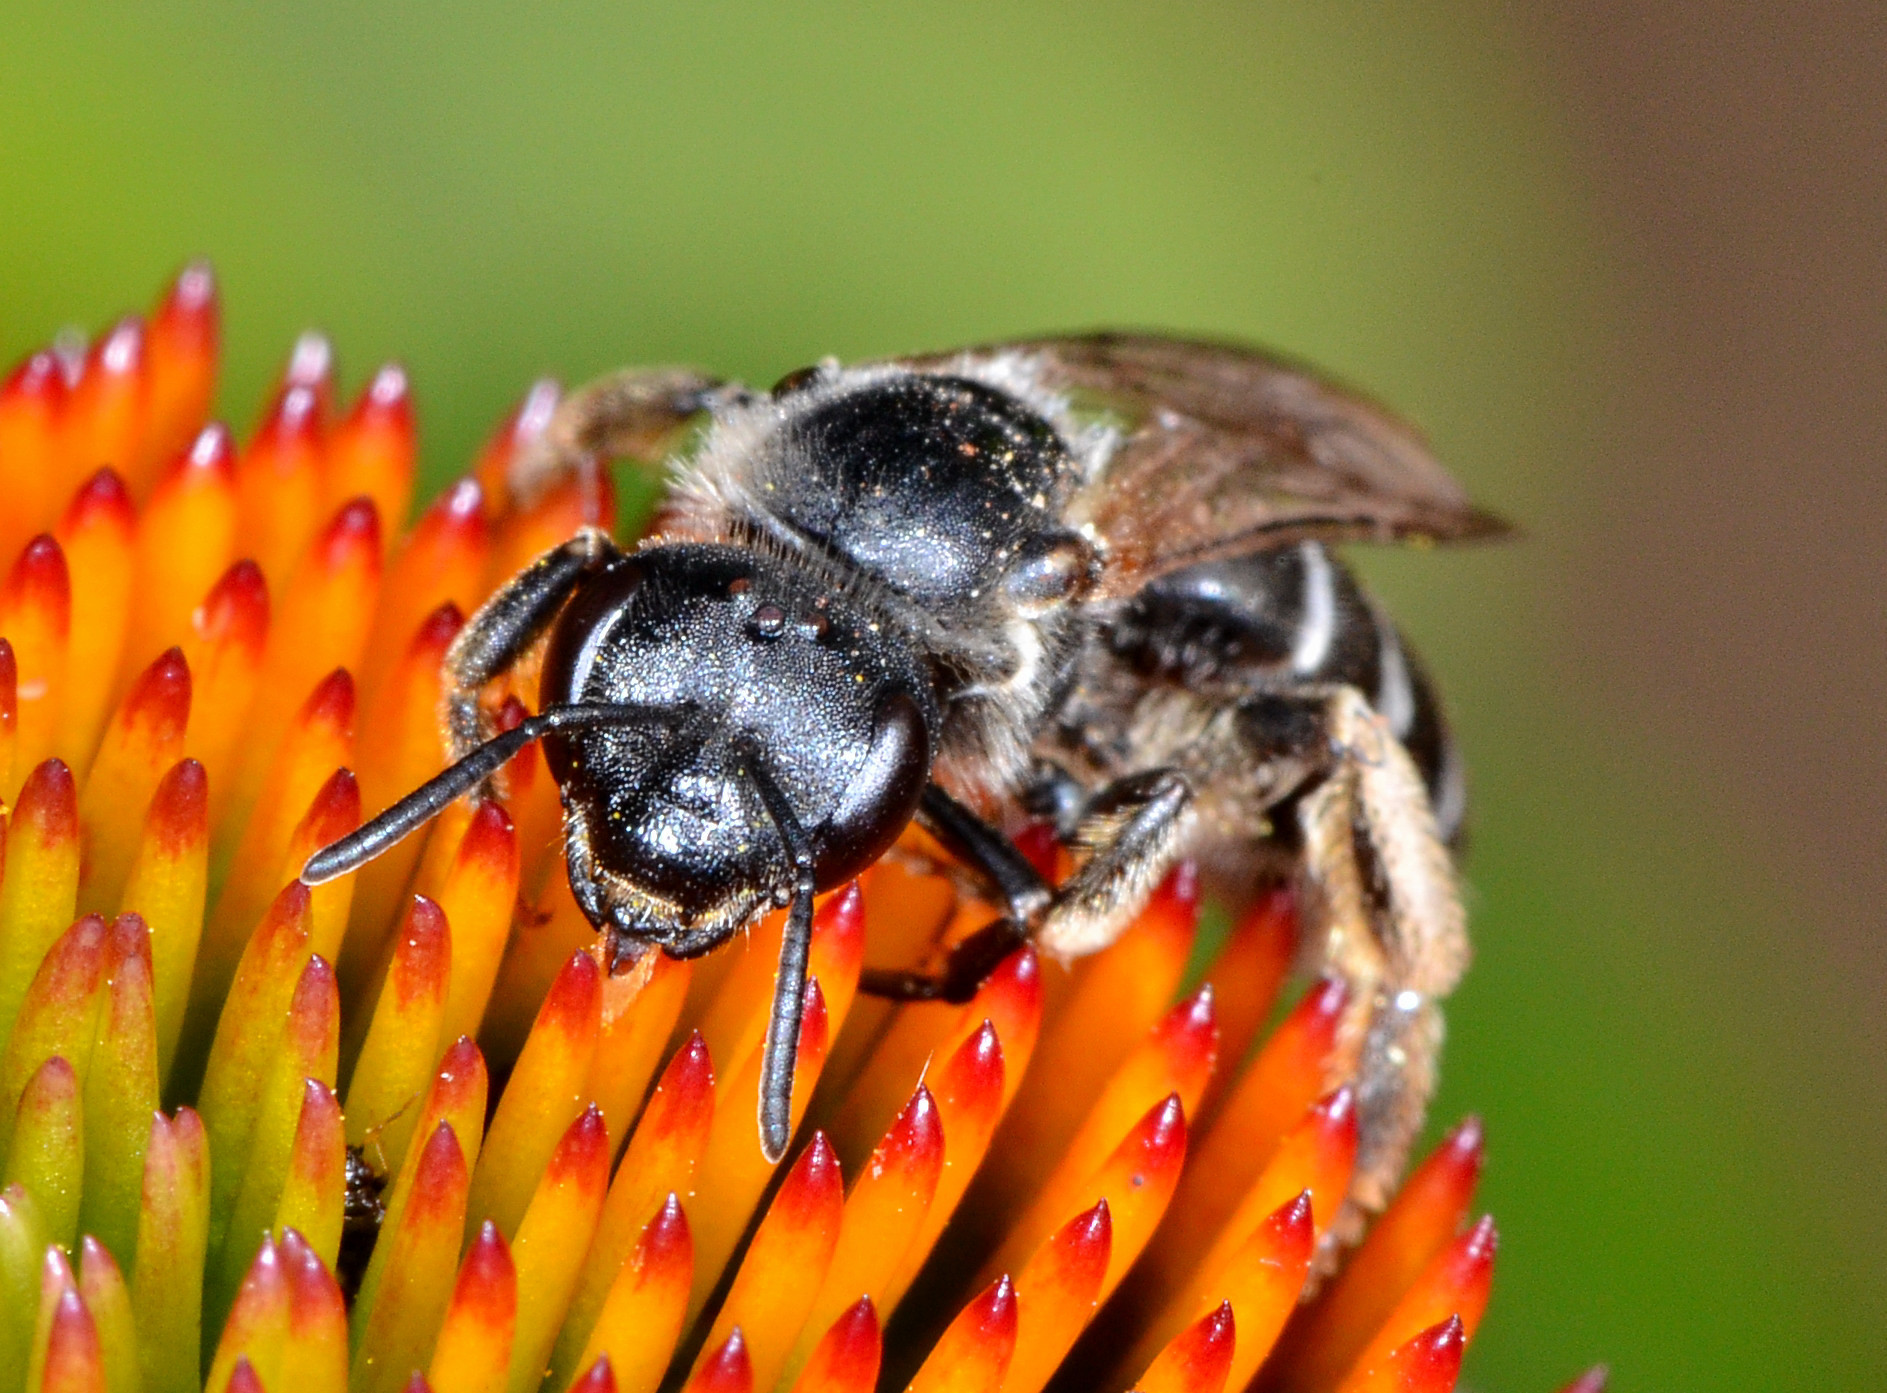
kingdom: Animalia
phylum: Arthropoda
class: Insecta
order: Hymenoptera
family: Halictidae
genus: Halictus
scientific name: Halictus
